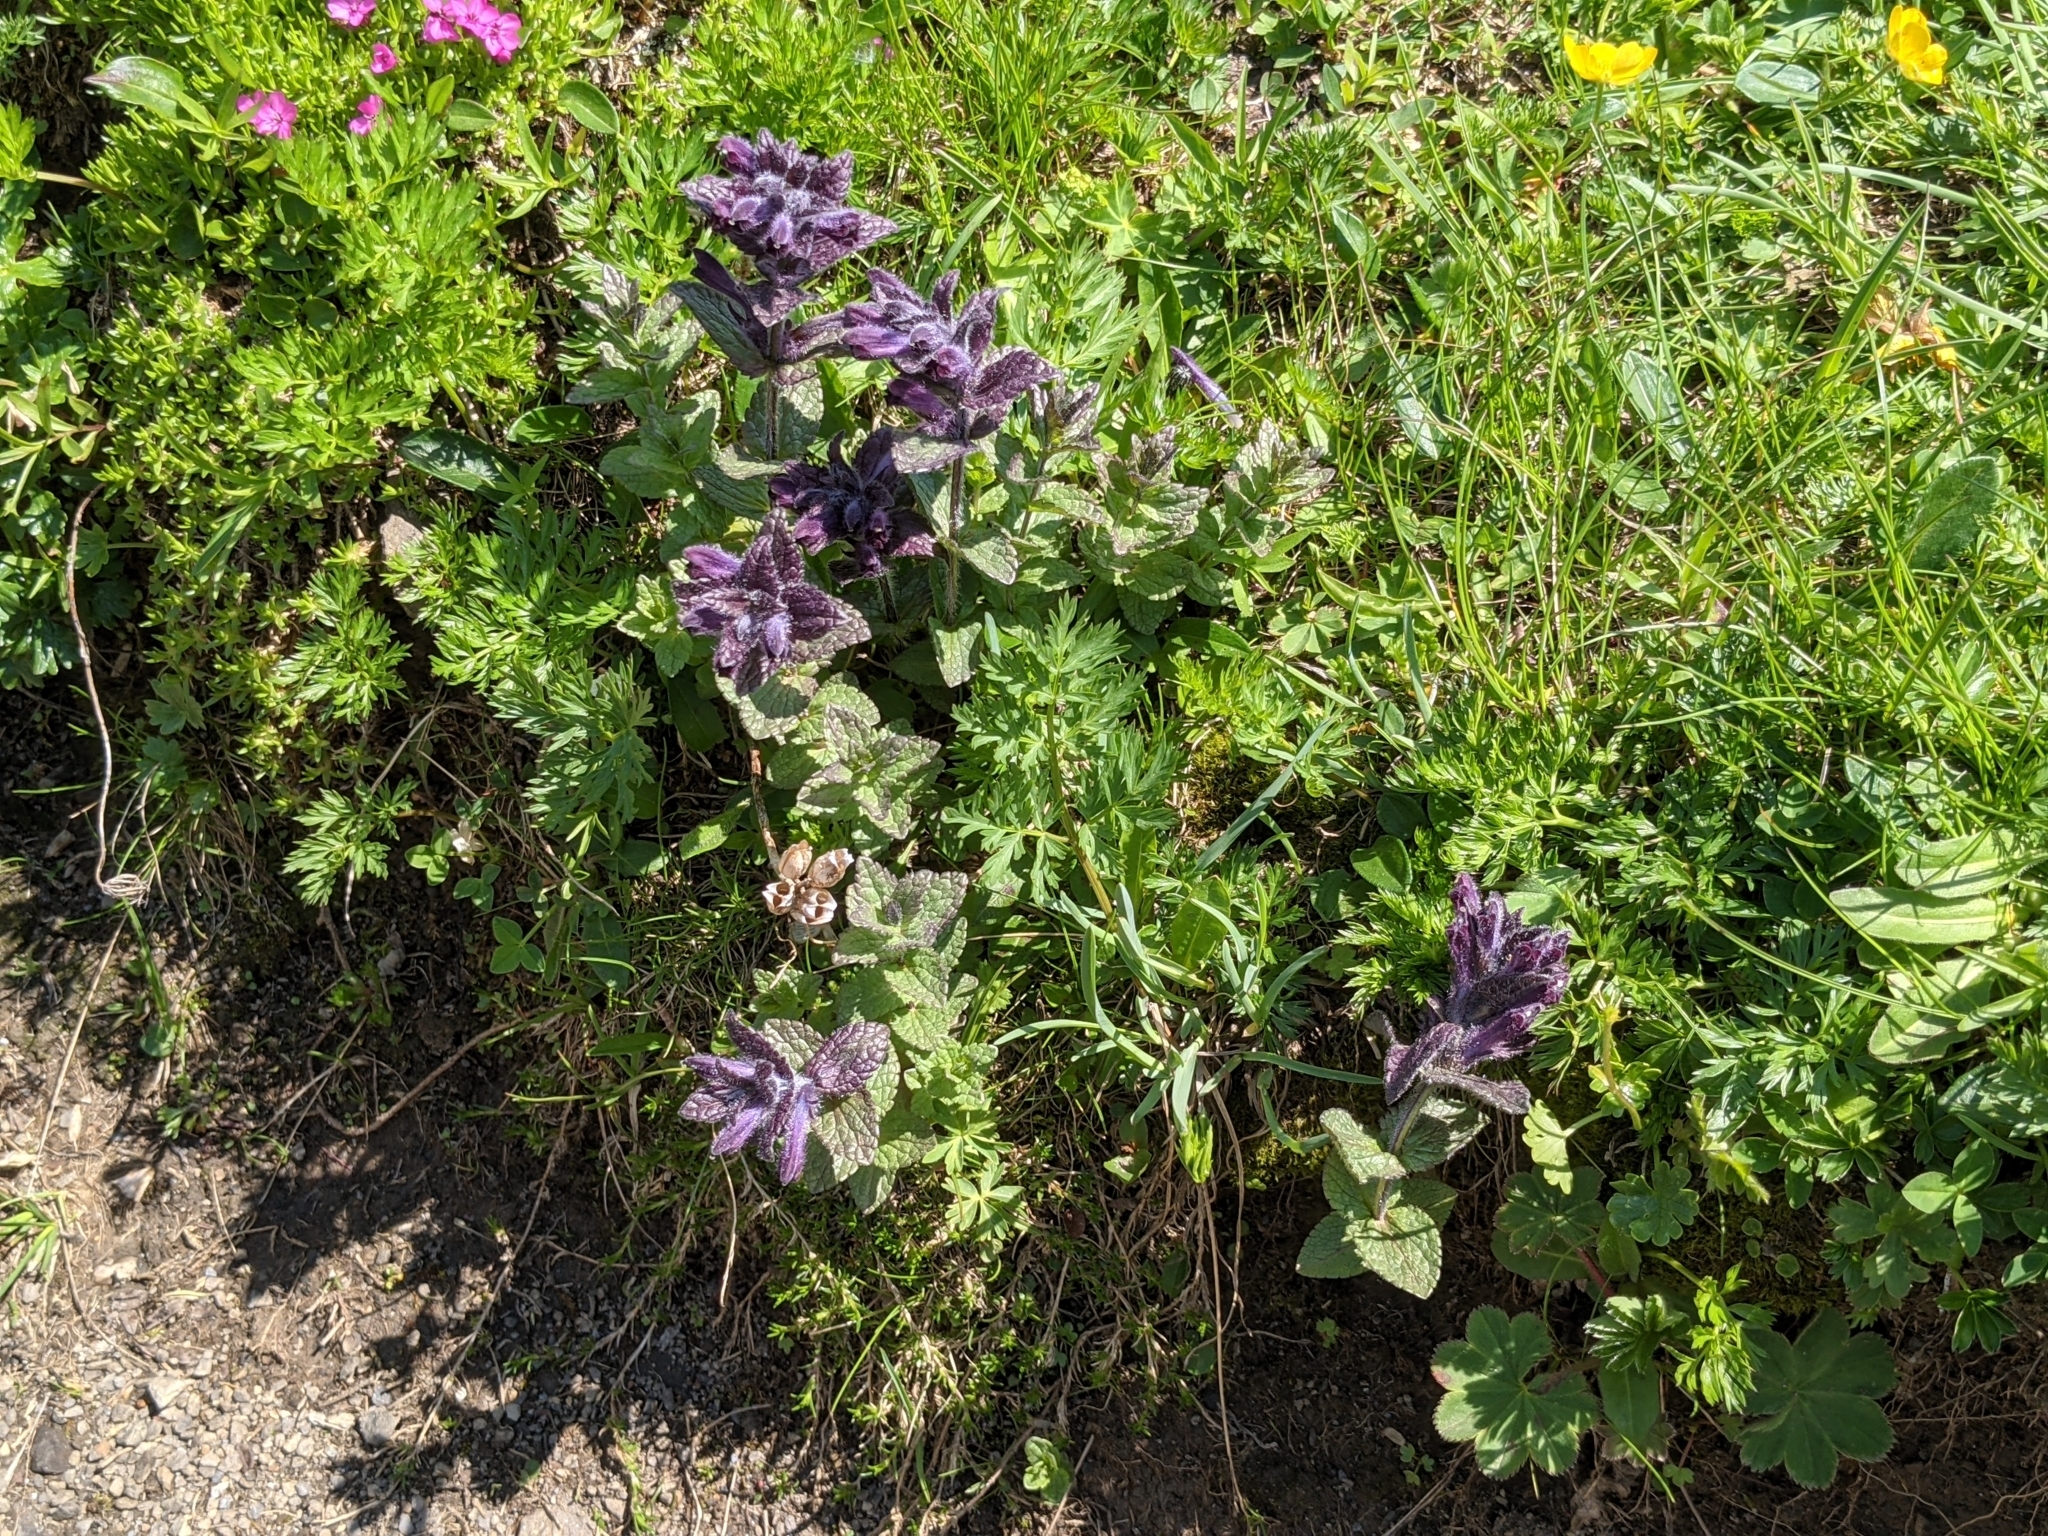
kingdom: Plantae
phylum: Tracheophyta
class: Magnoliopsida
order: Lamiales
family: Orobanchaceae
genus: Bartsia
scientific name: Bartsia alpina
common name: Alpine bartsia
